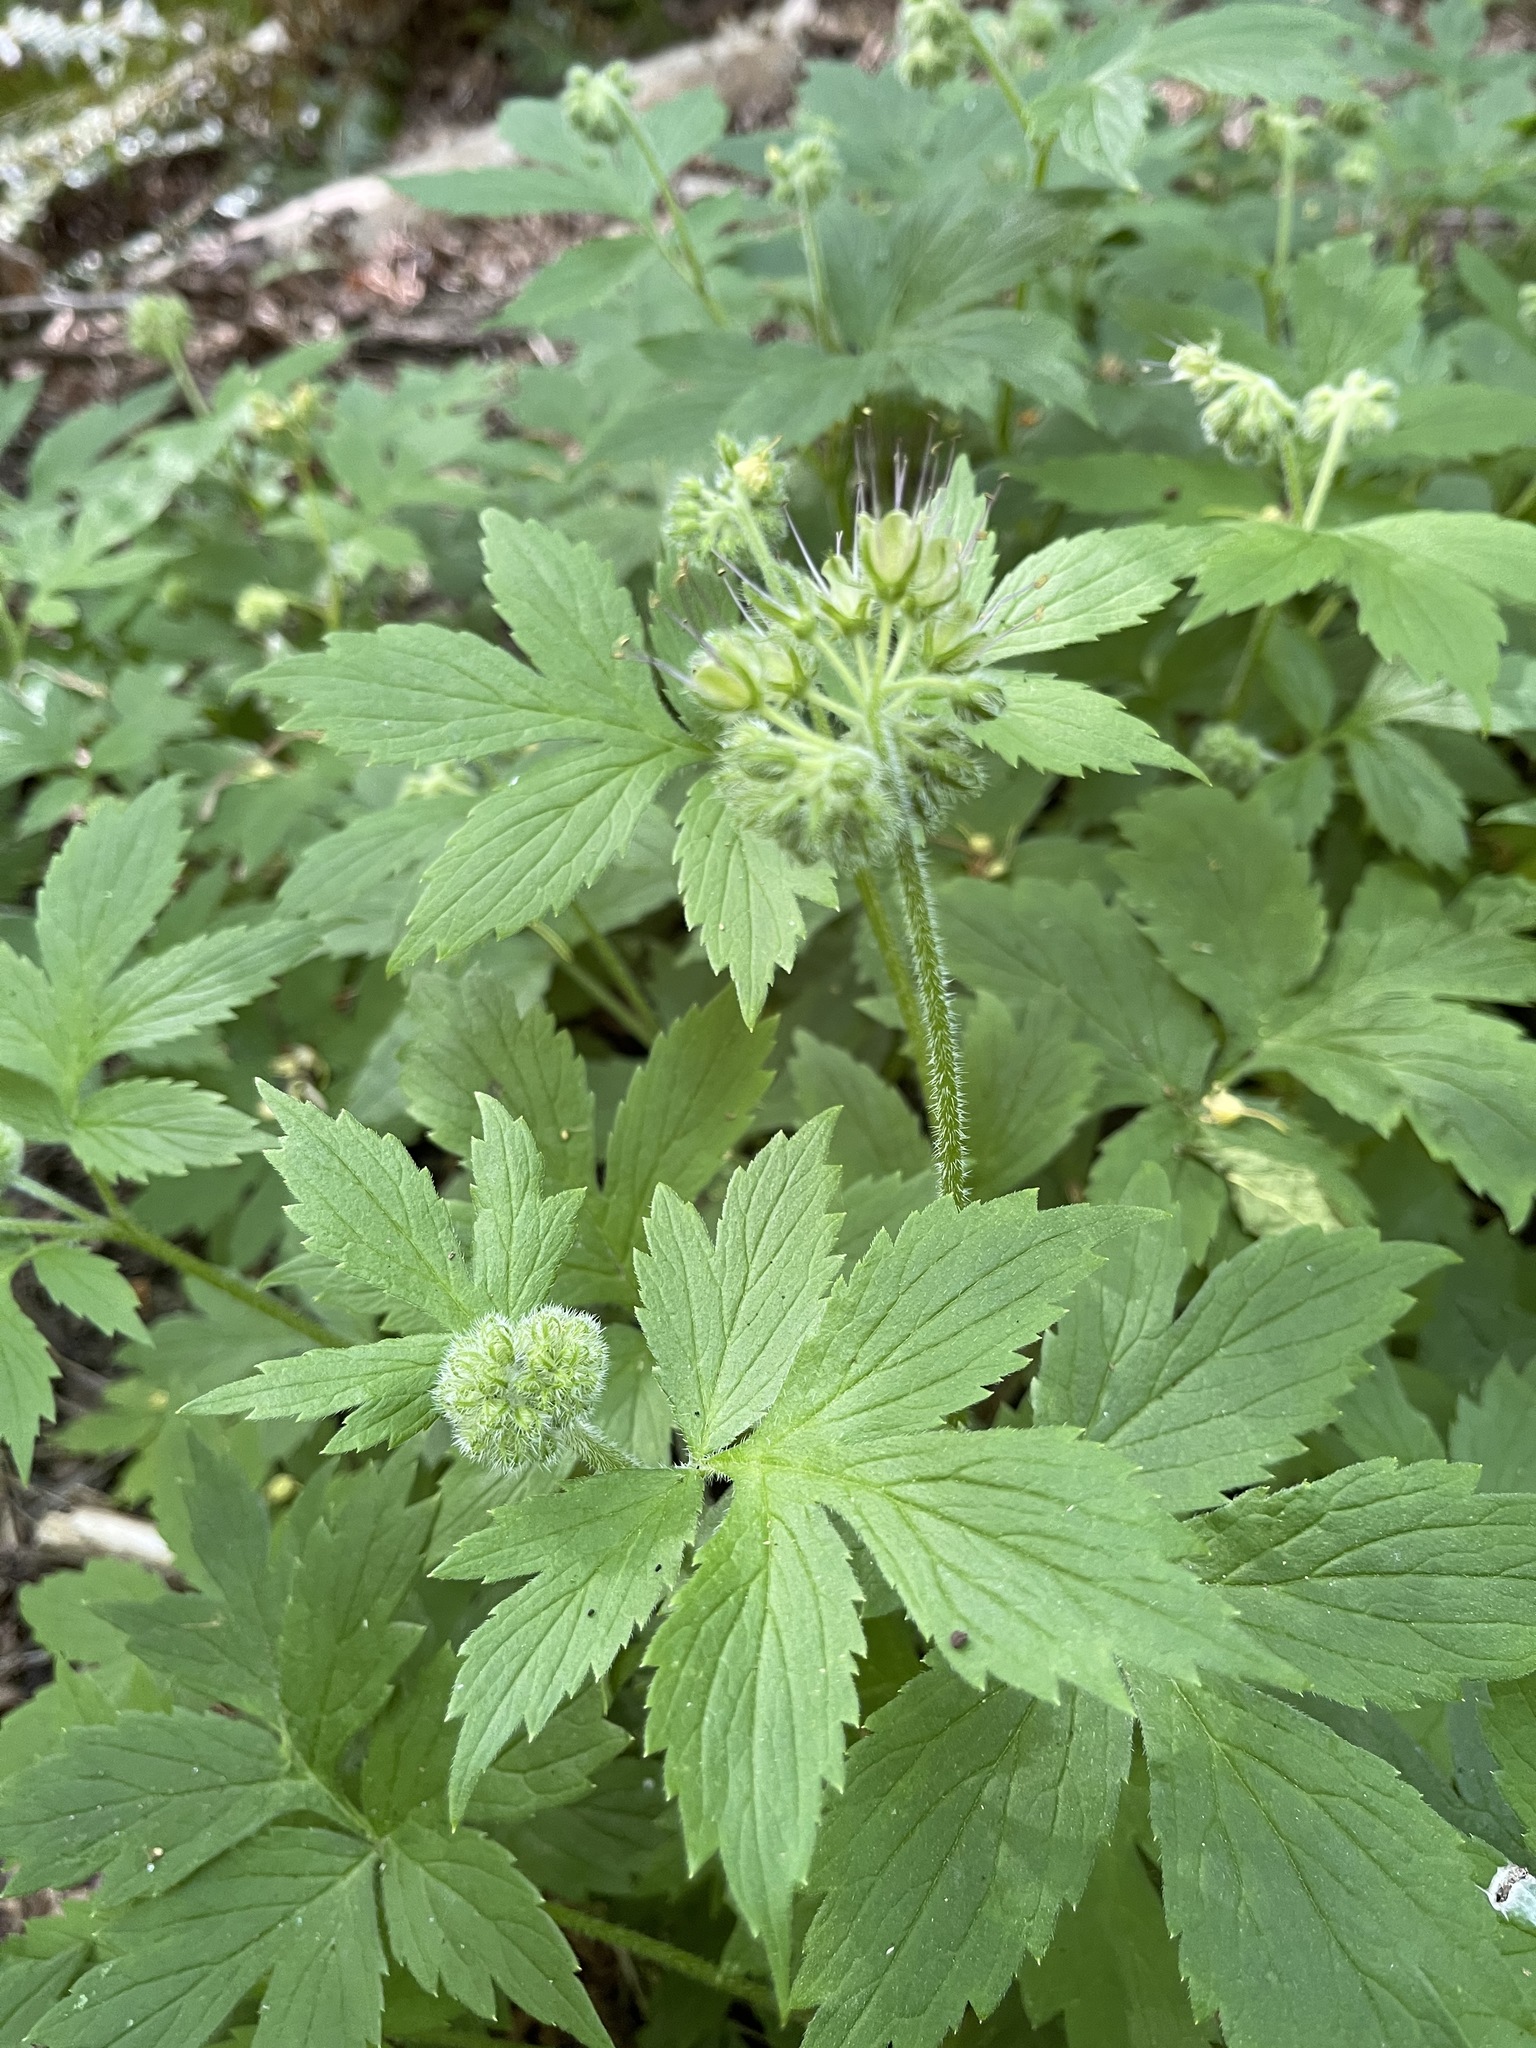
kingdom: Plantae
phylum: Tracheophyta
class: Magnoliopsida
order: Boraginales
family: Hydrophyllaceae
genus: Hydrophyllum
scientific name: Hydrophyllum tenuipes
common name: Pacific waterleaf
